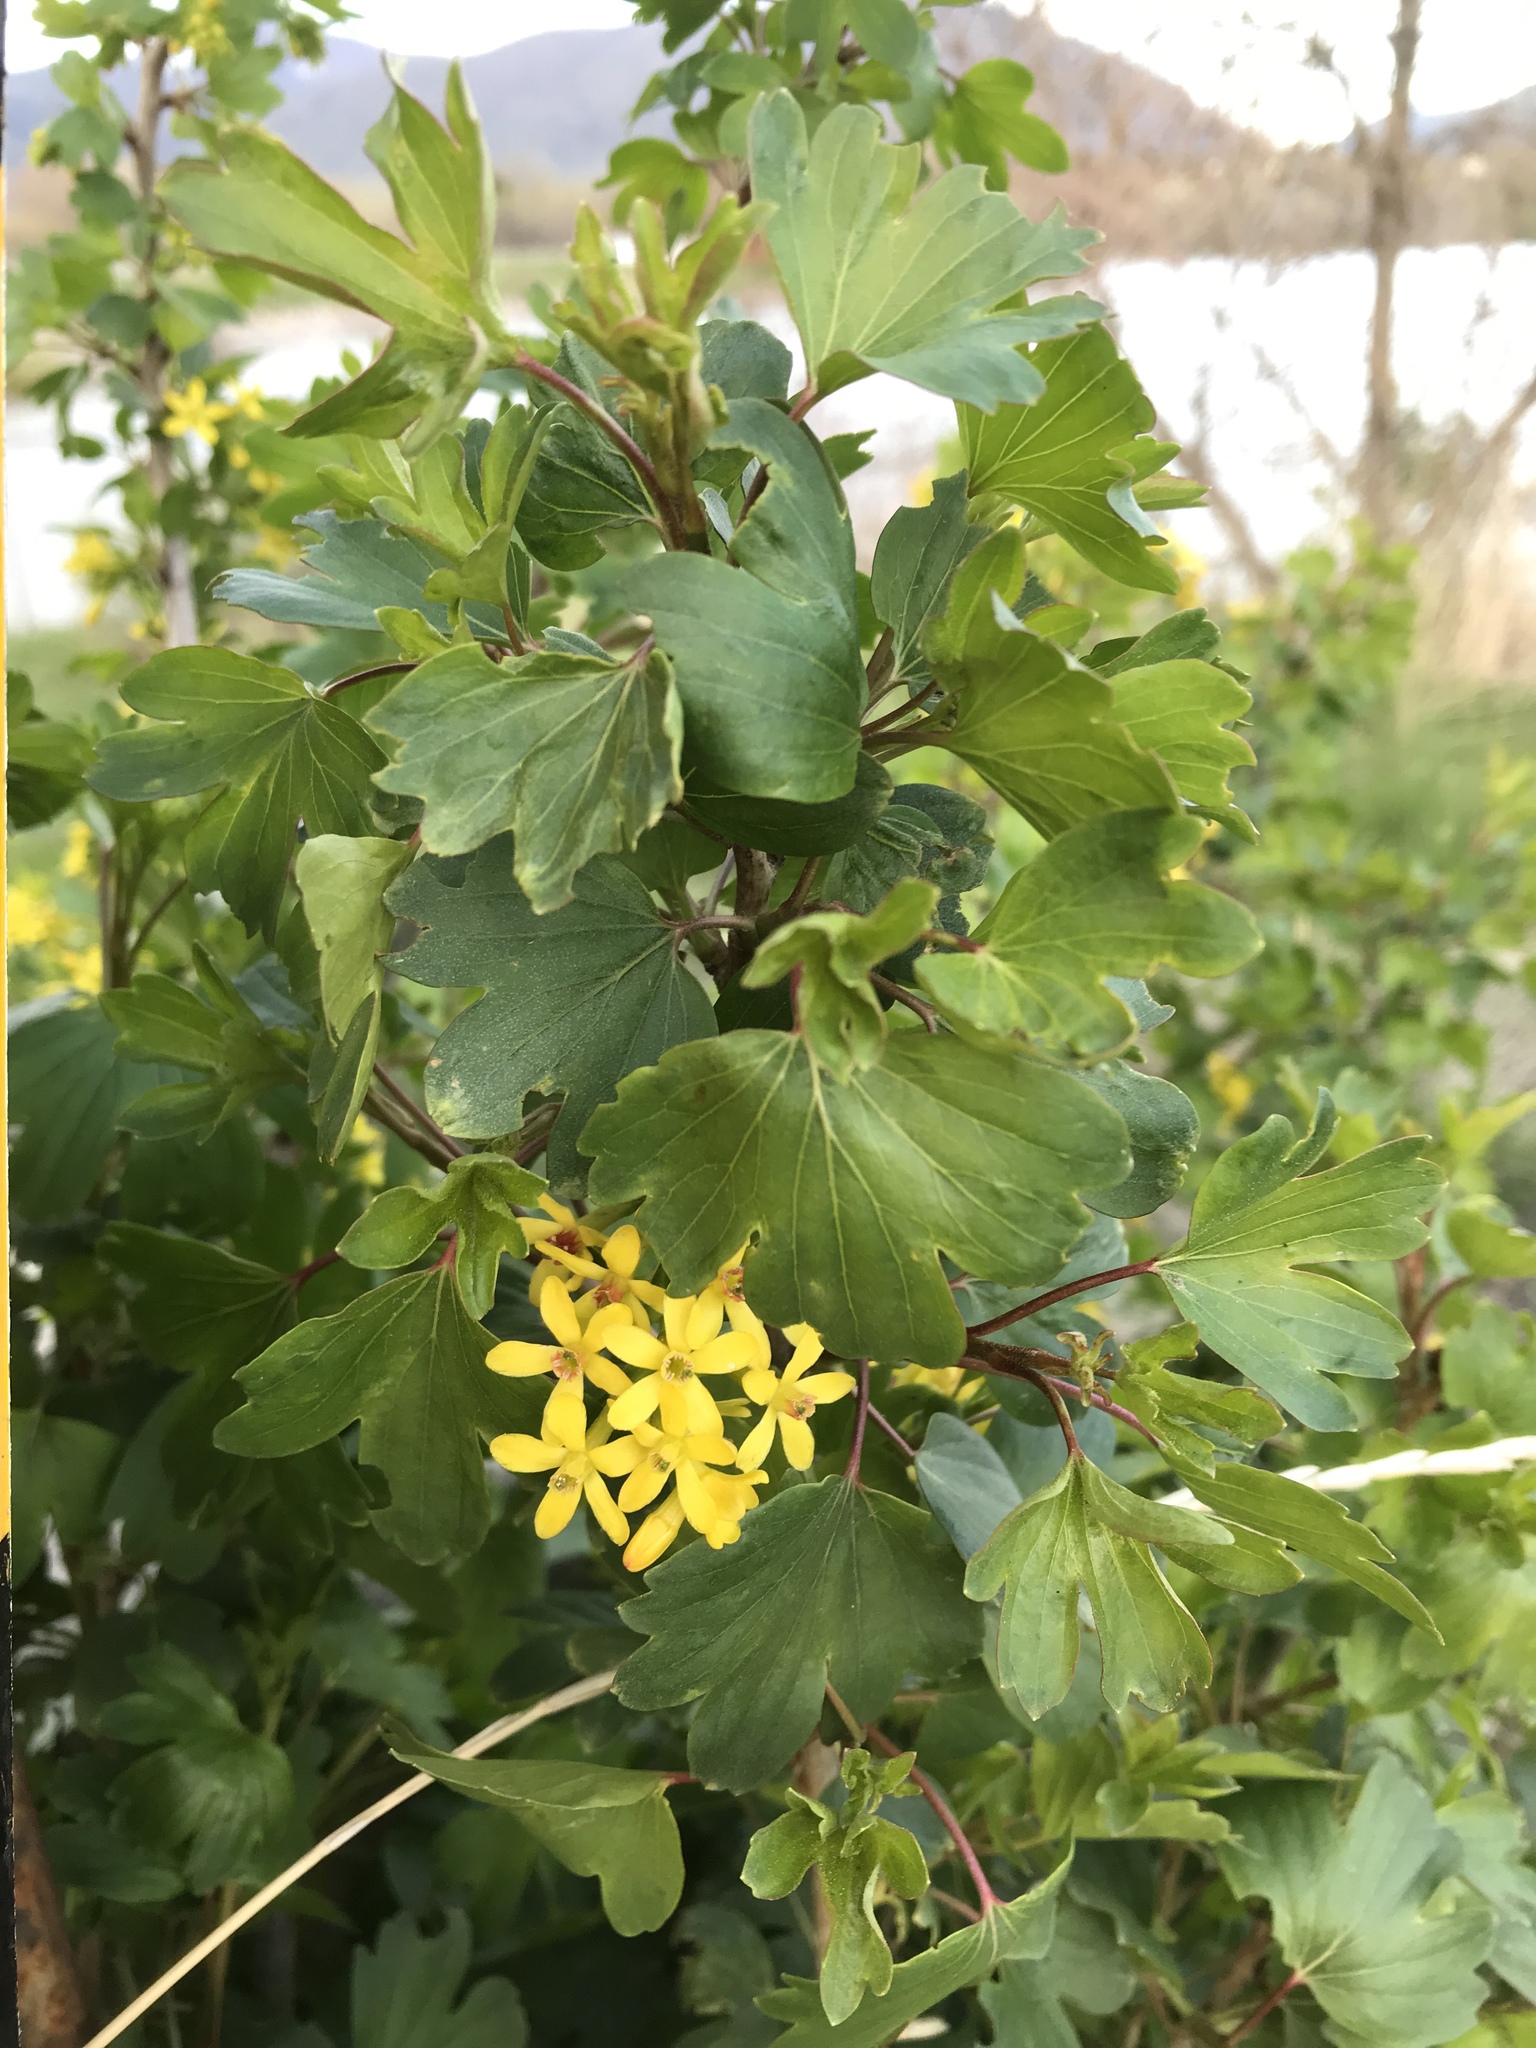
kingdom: Plantae
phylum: Tracheophyta
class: Magnoliopsida
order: Saxifragales
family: Grossulariaceae
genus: Ribes
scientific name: Ribes aureum
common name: Golden currant
